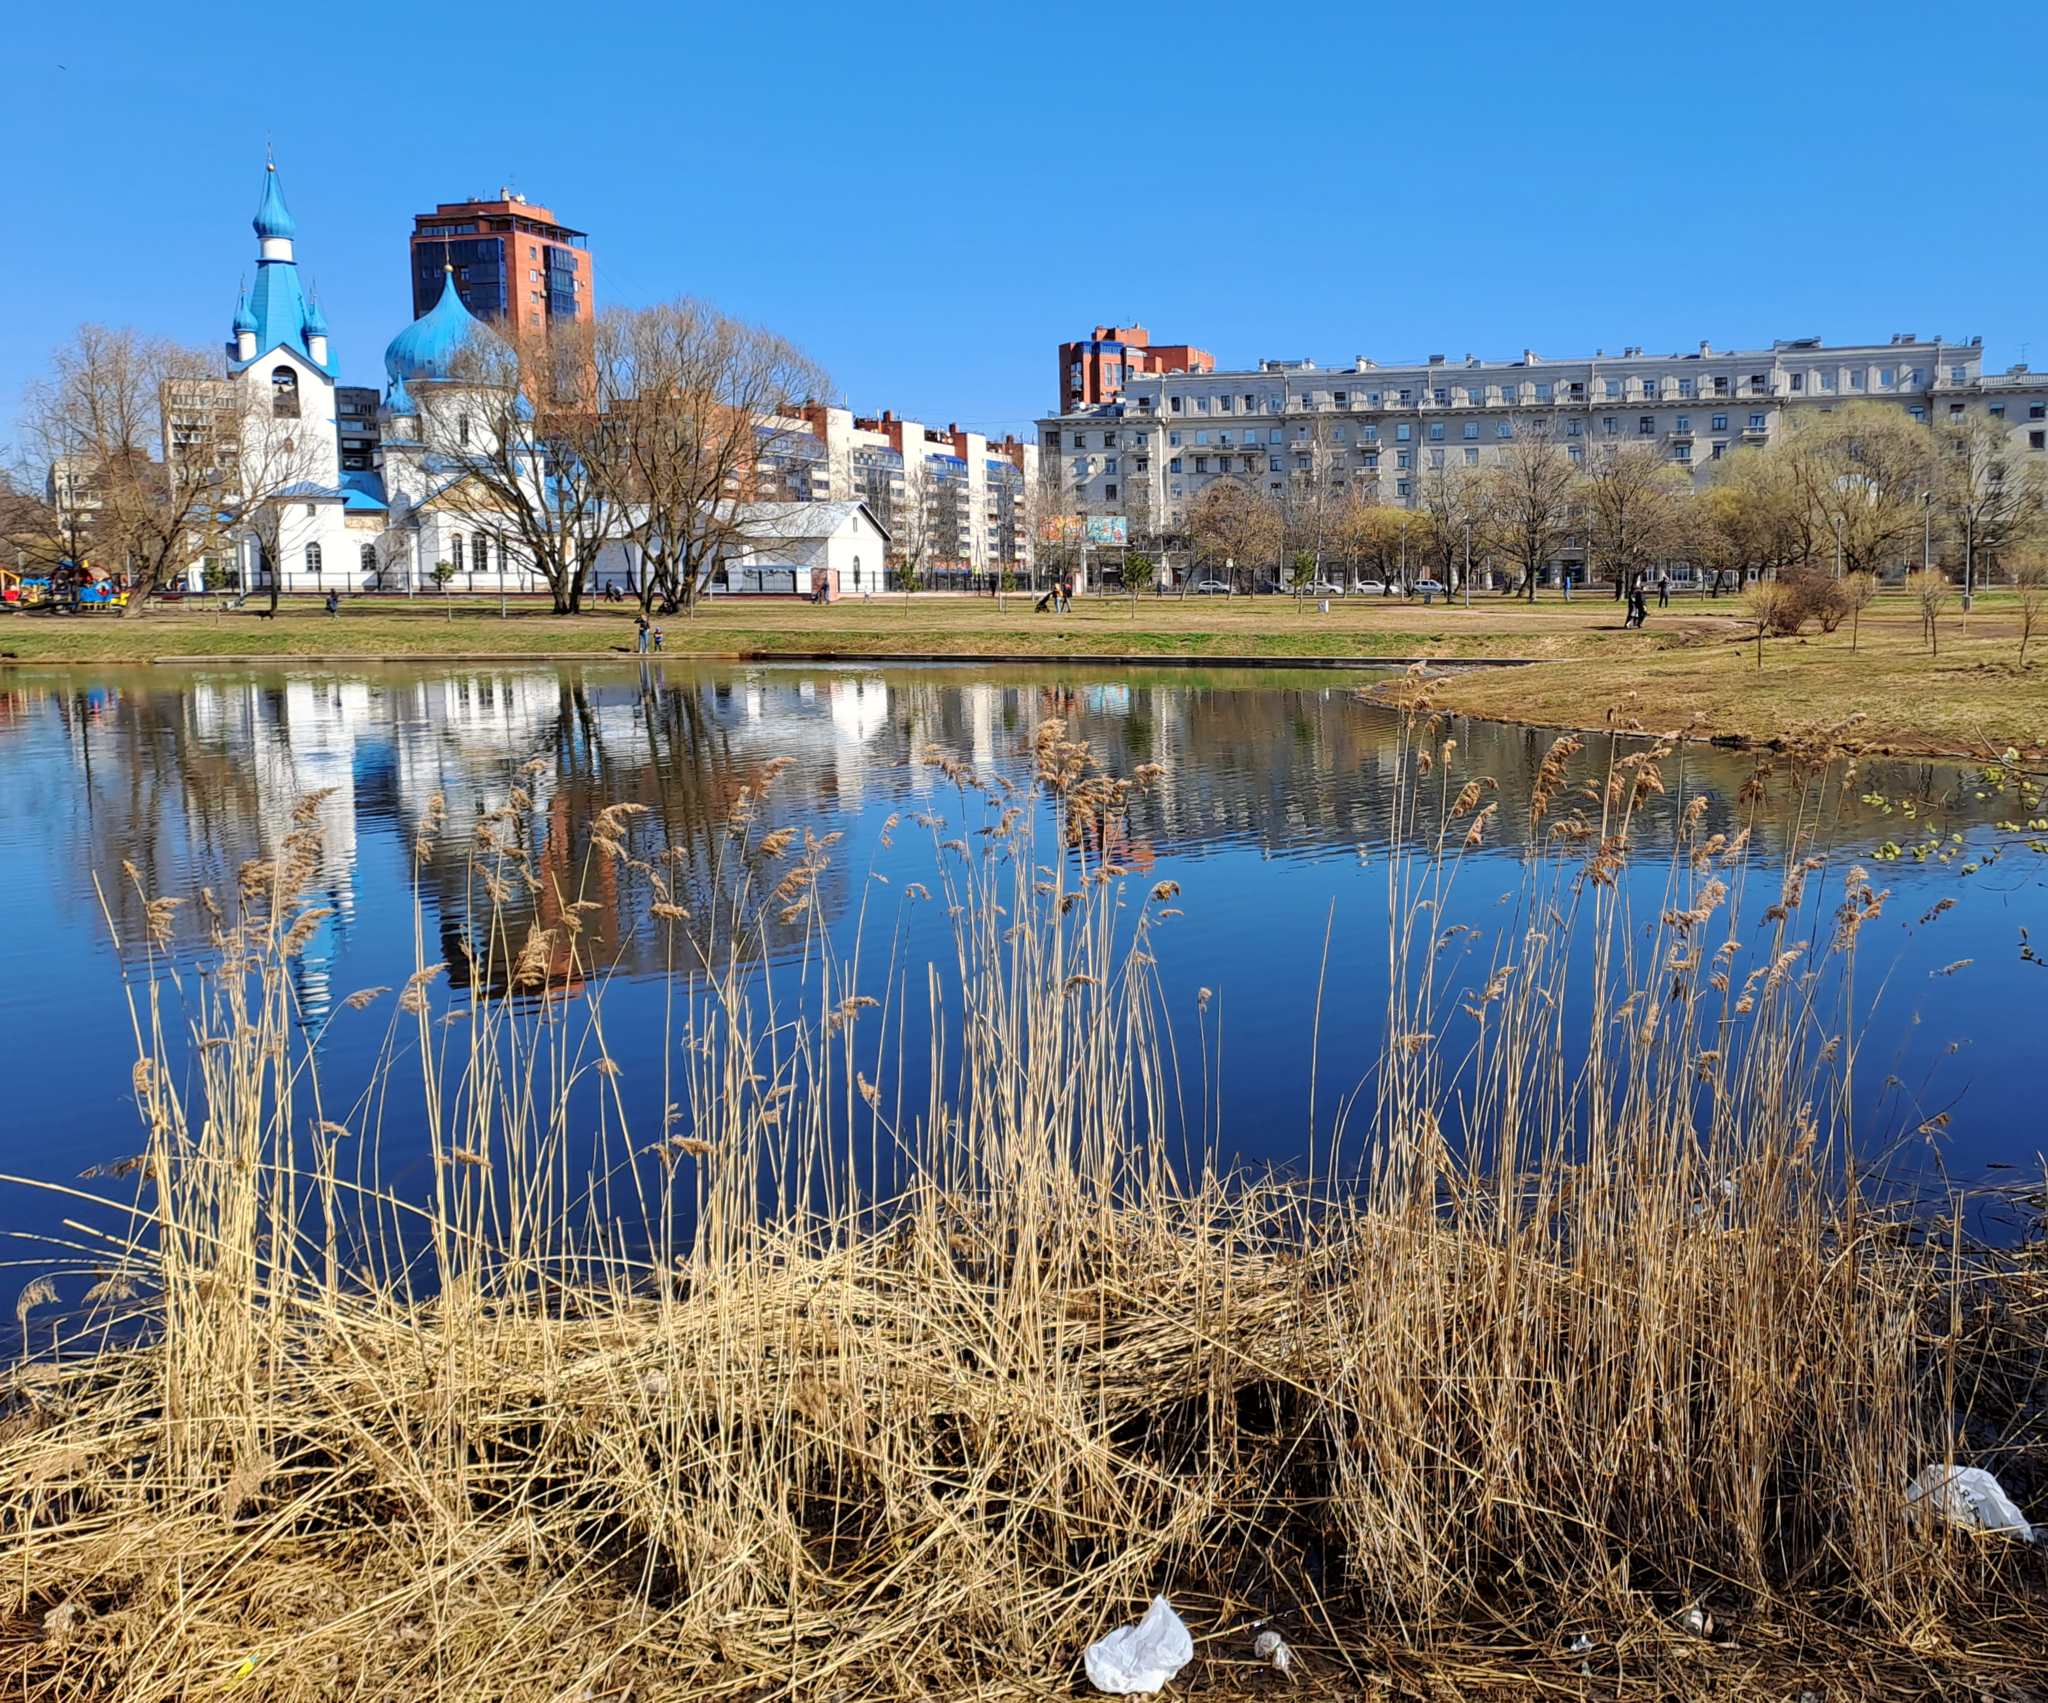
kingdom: Plantae
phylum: Tracheophyta
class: Liliopsida
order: Poales
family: Poaceae
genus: Phragmites
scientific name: Phragmites australis
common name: Common reed
